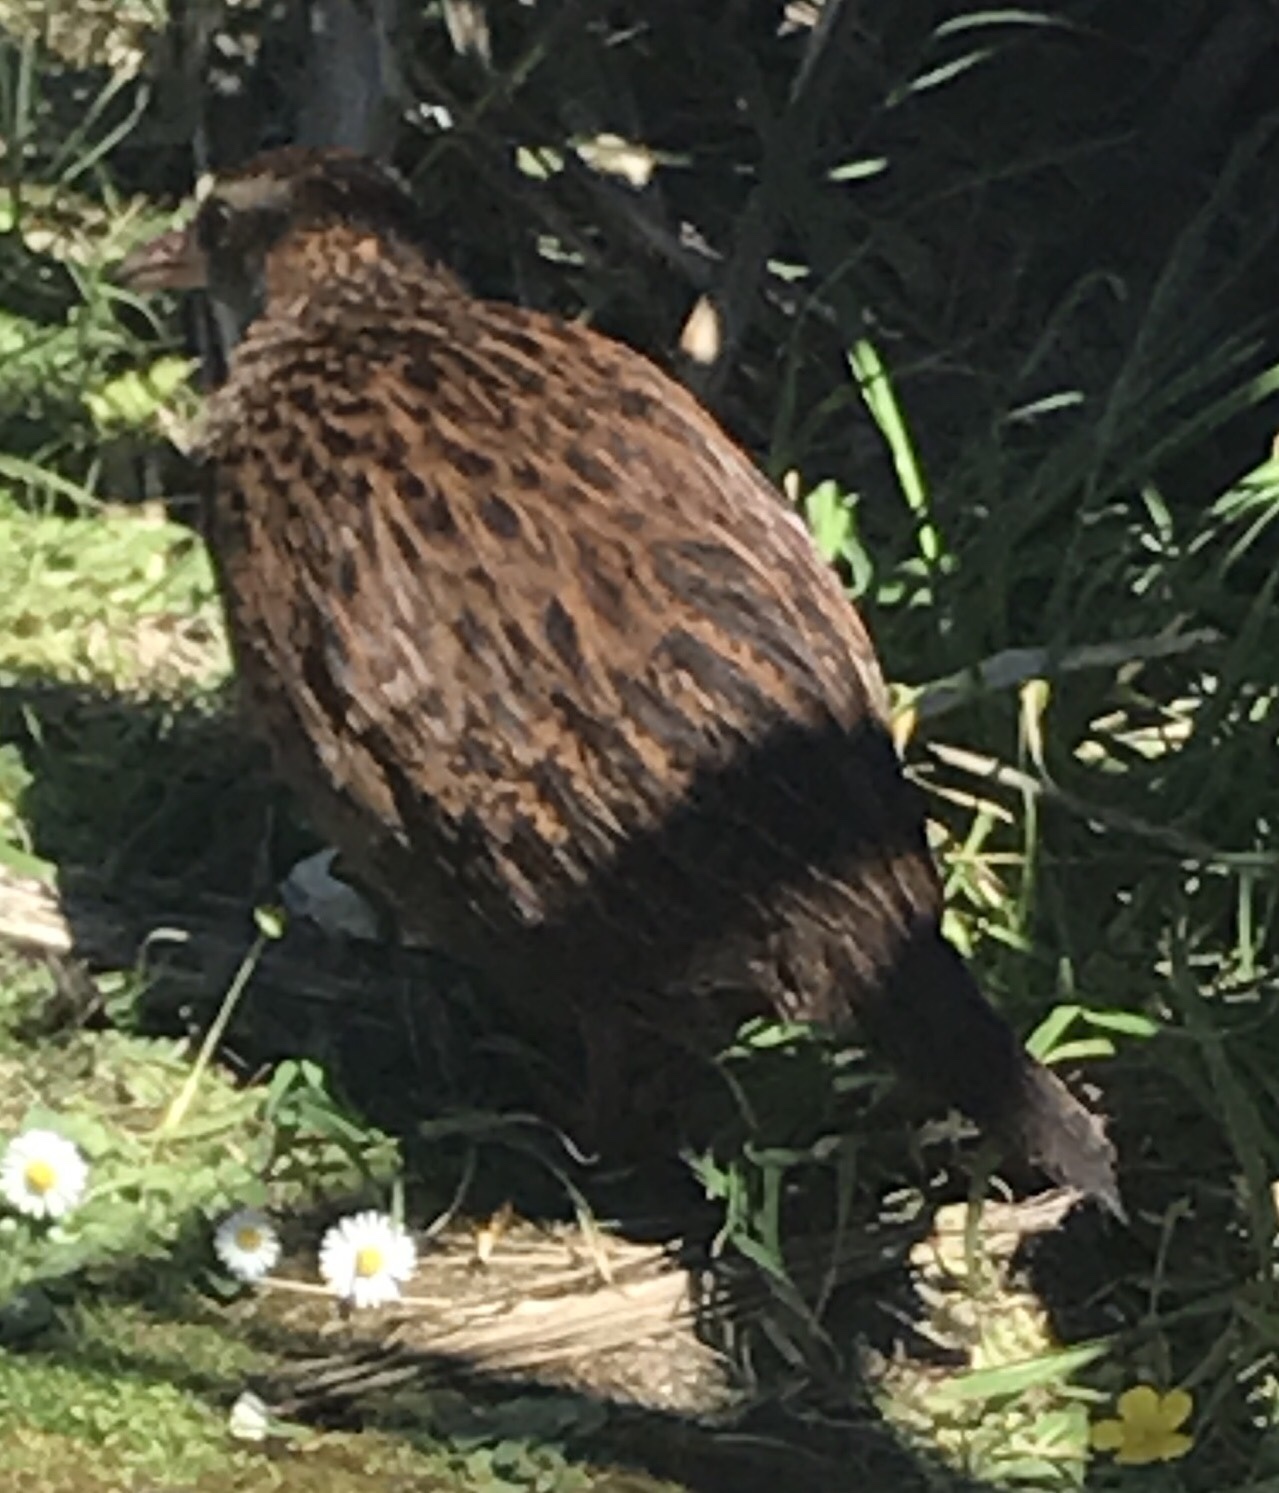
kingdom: Animalia
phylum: Chordata
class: Aves
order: Gruiformes
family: Rallidae
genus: Gallirallus
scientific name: Gallirallus australis
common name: Weka
